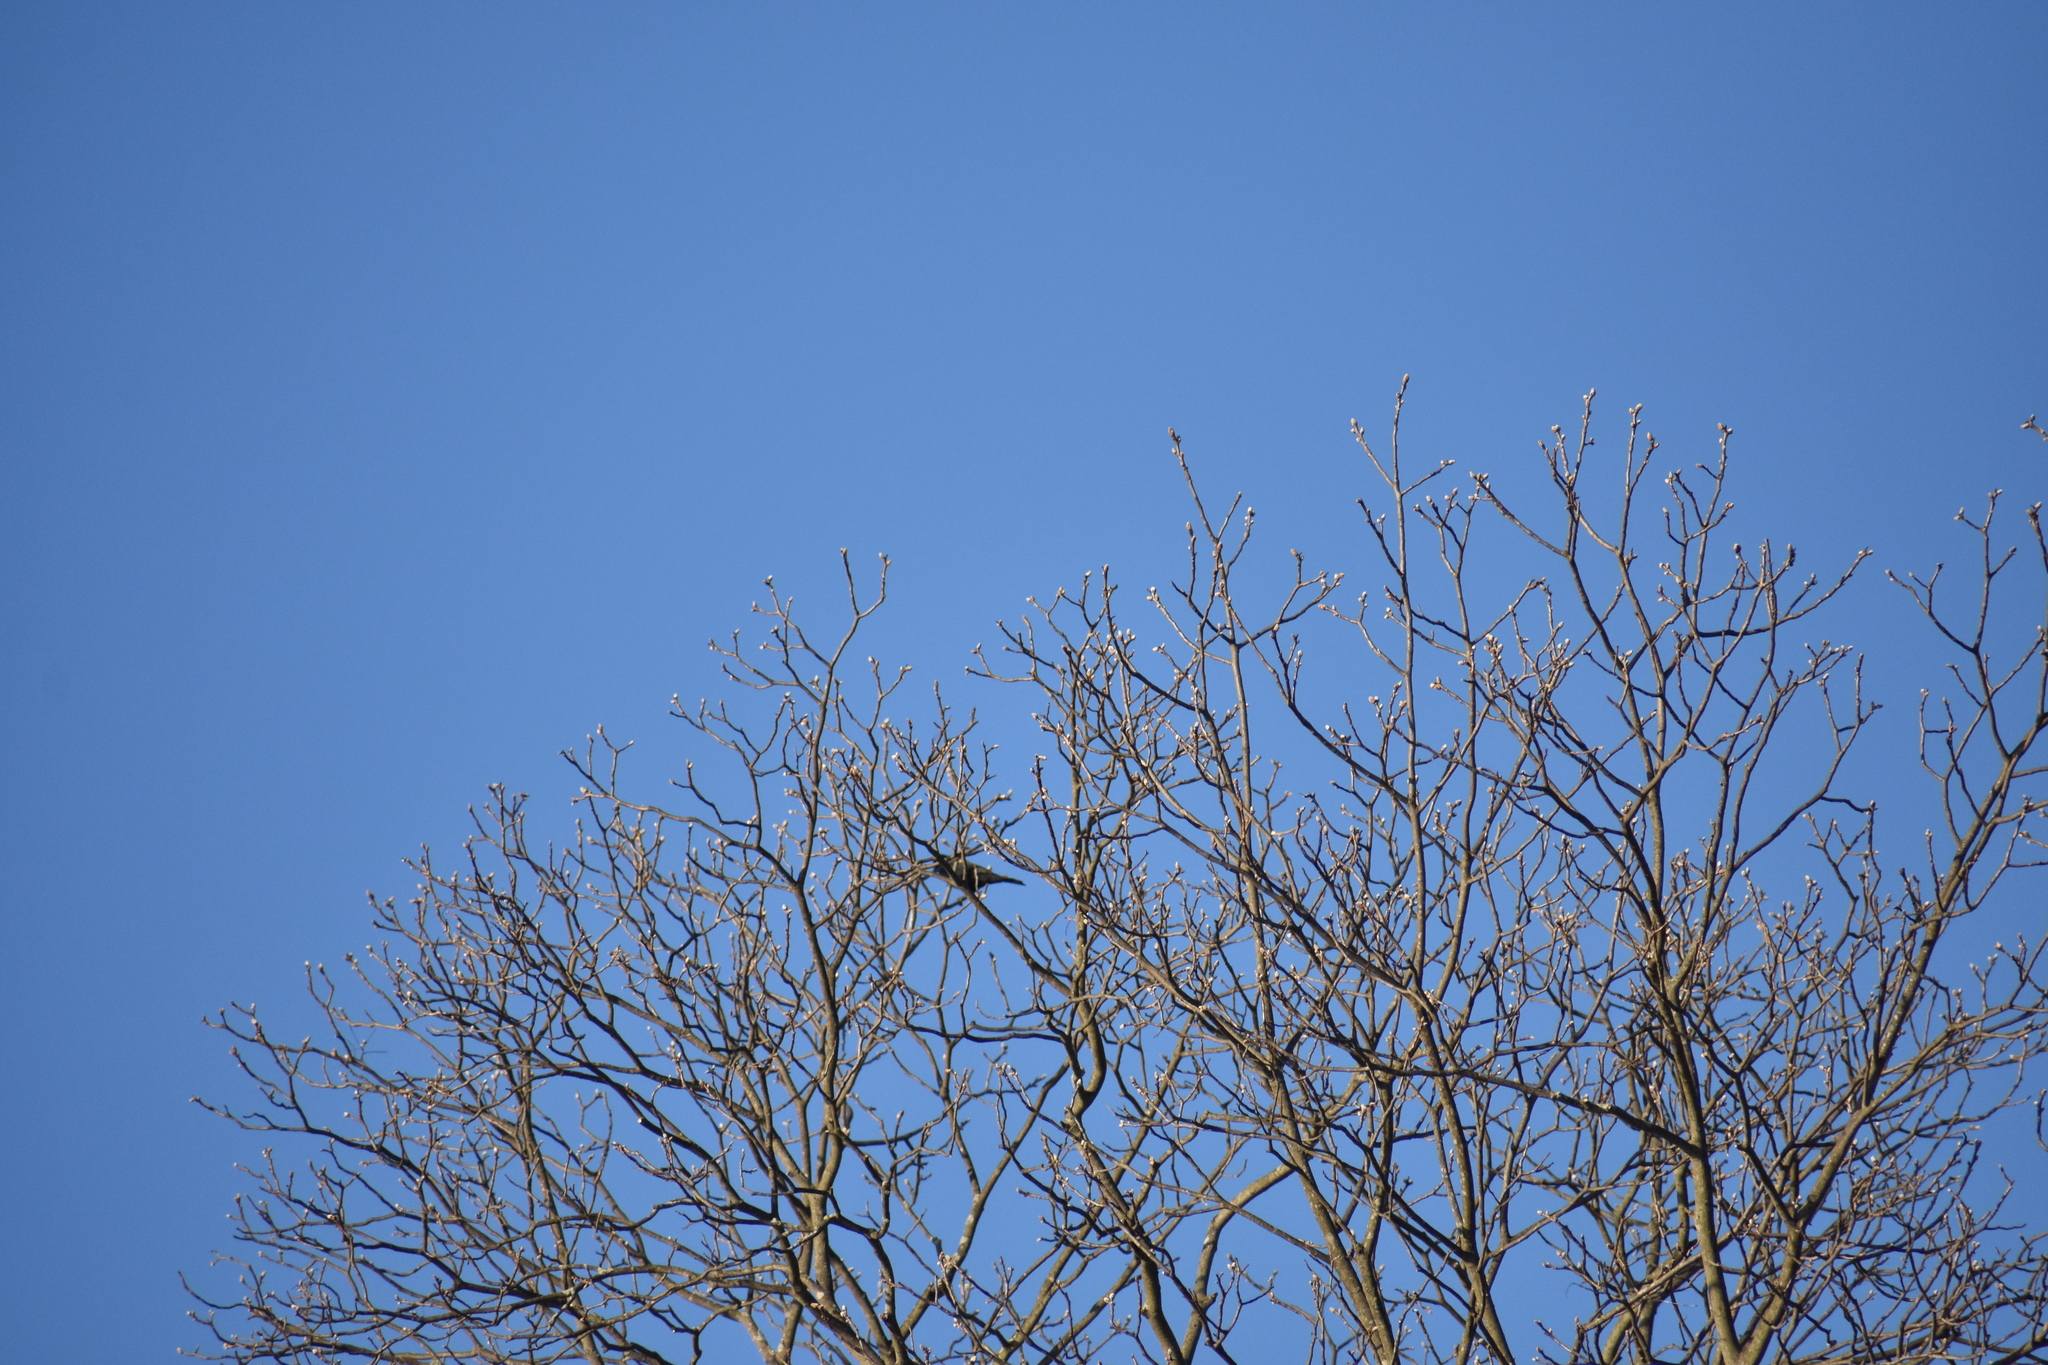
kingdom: Animalia
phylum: Chordata
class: Aves
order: Passeriformes
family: Icteridae
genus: Agelaius
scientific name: Agelaius phoeniceus
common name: Red-winged blackbird
